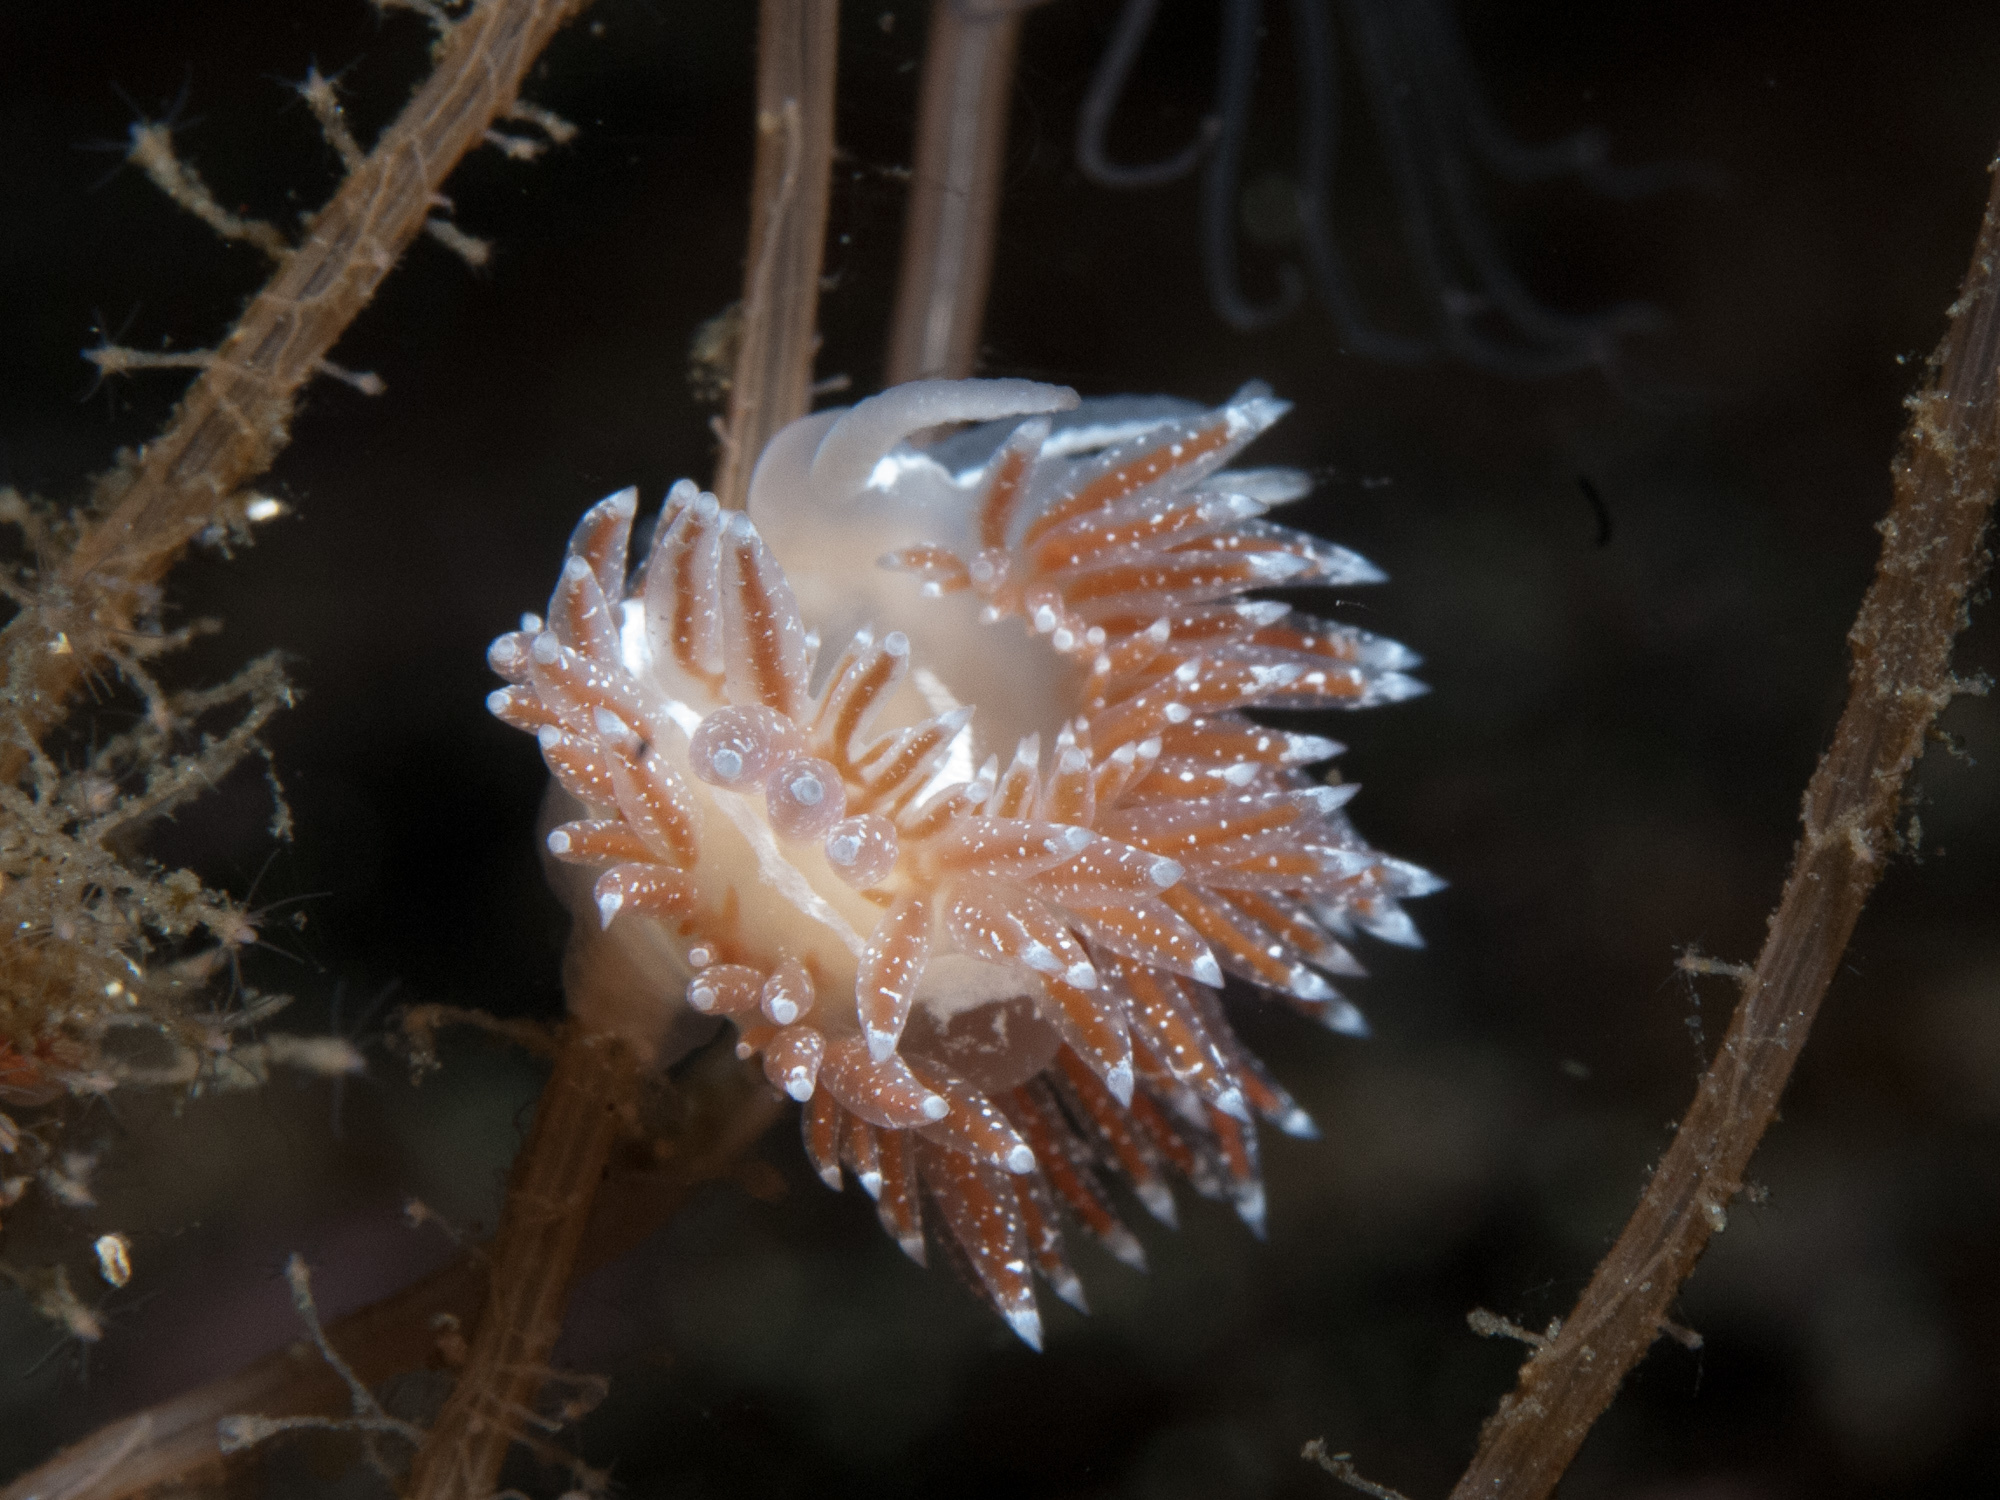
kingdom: Animalia
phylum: Mollusca
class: Gastropoda
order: Nudibranchia
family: Coryphellidae
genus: Coryphella
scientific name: Coryphella monicae
